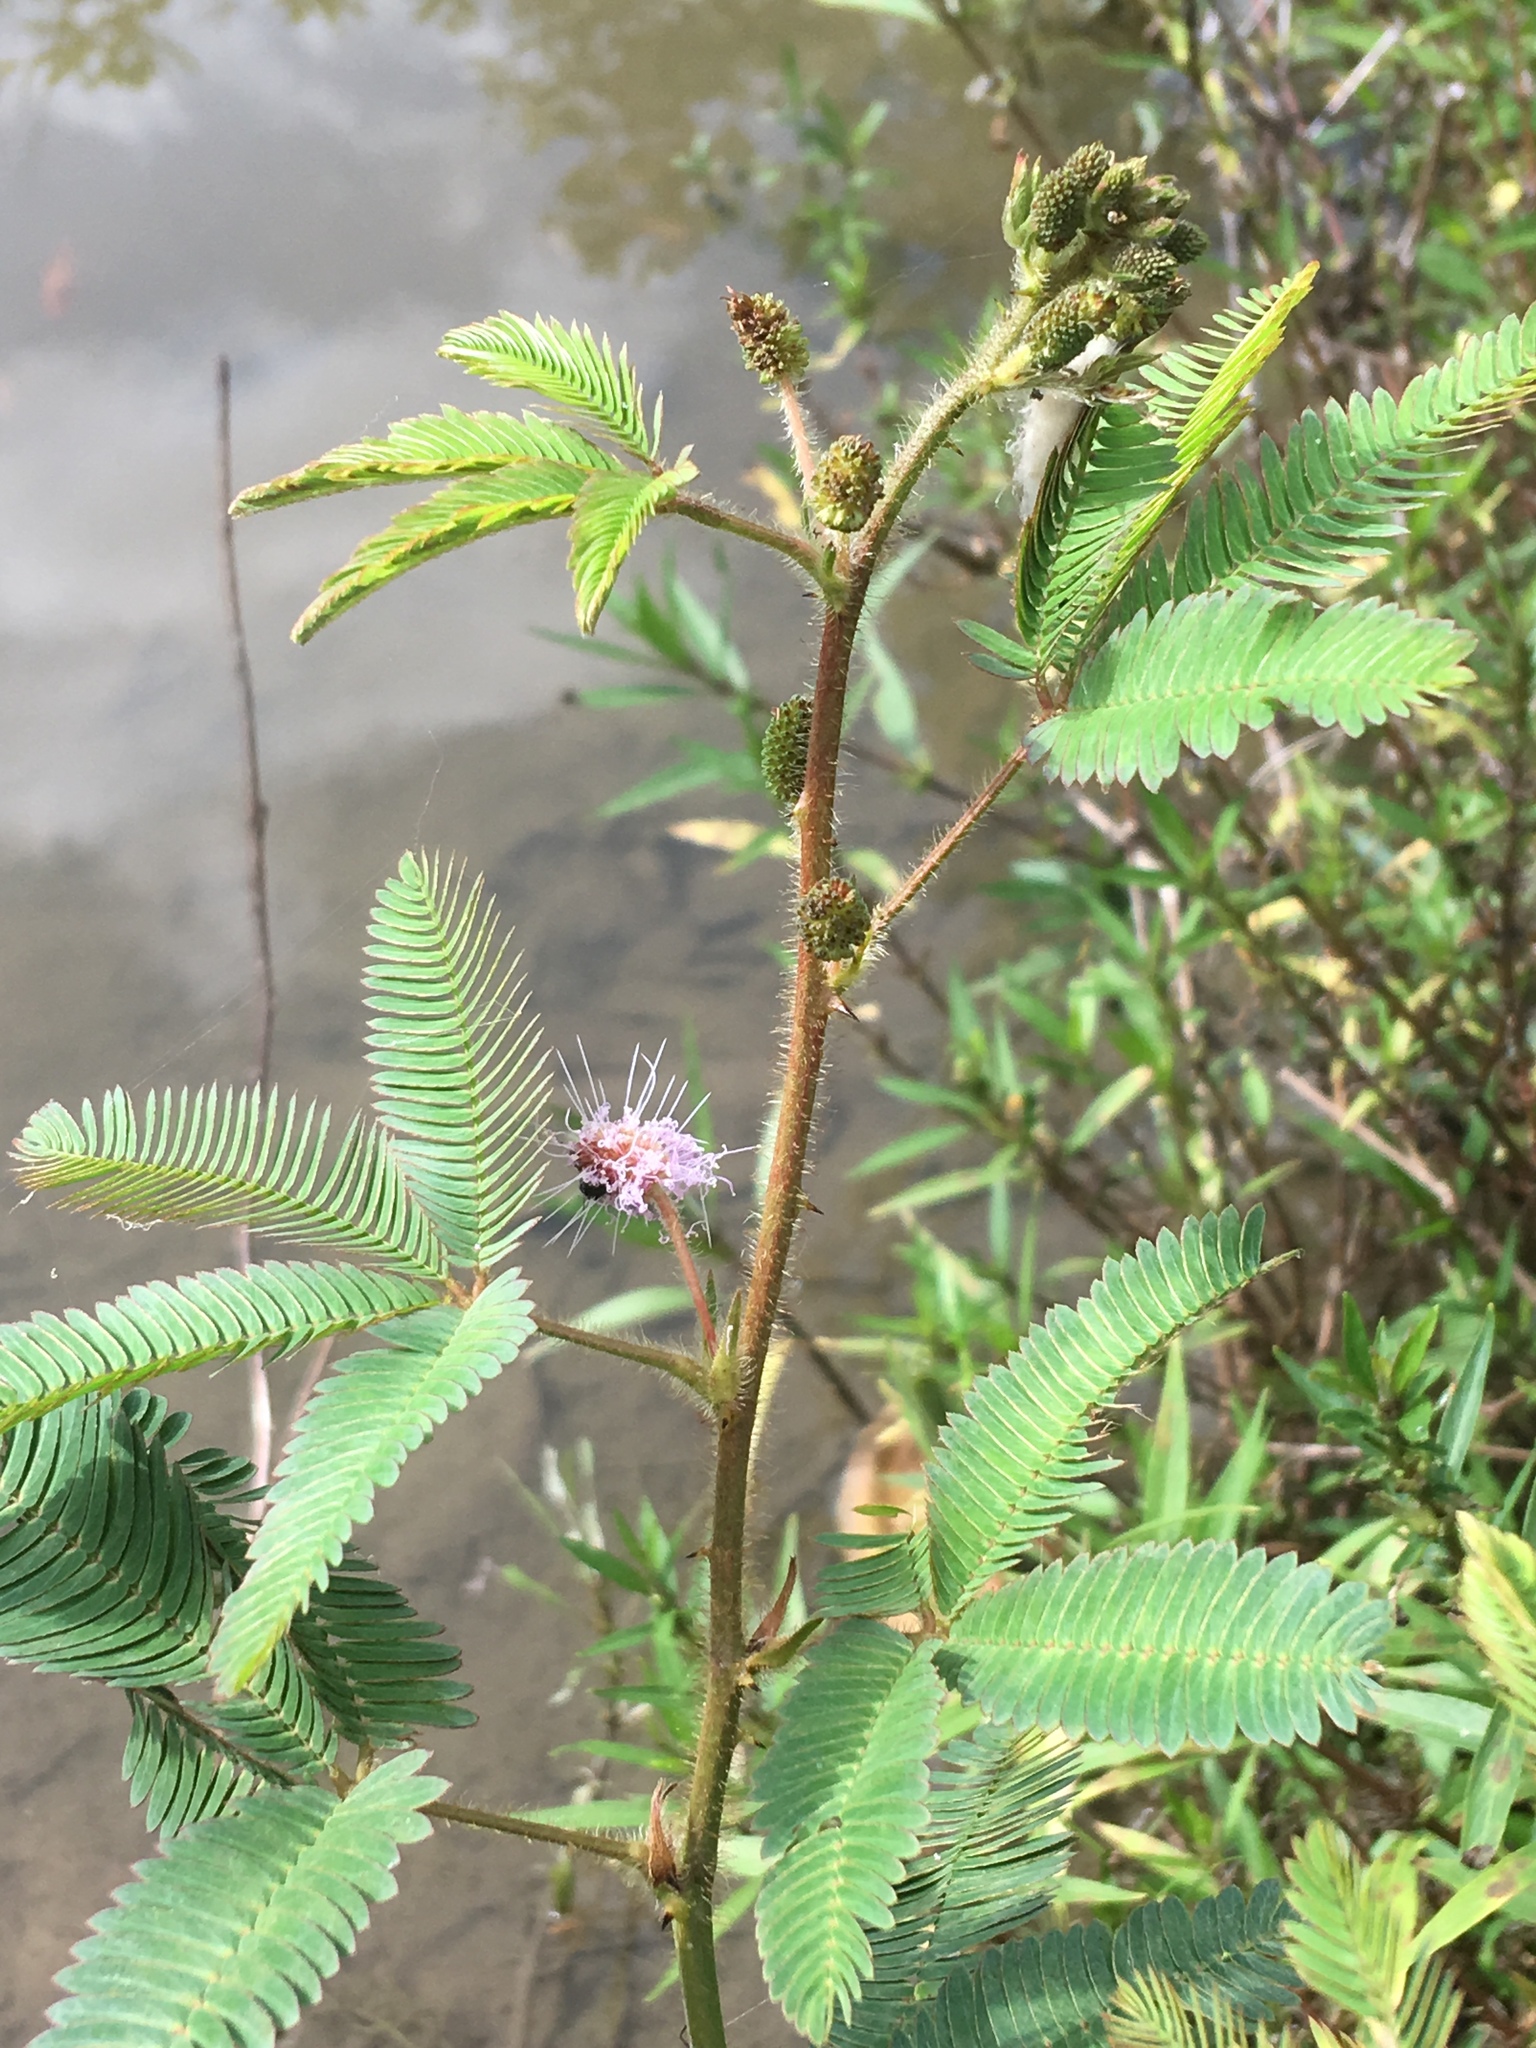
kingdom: Plantae
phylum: Tracheophyta
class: Magnoliopsida
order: Fabales
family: Fabaceae
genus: Mimosa
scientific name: Mimosa pudica
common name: Sensitive plant
